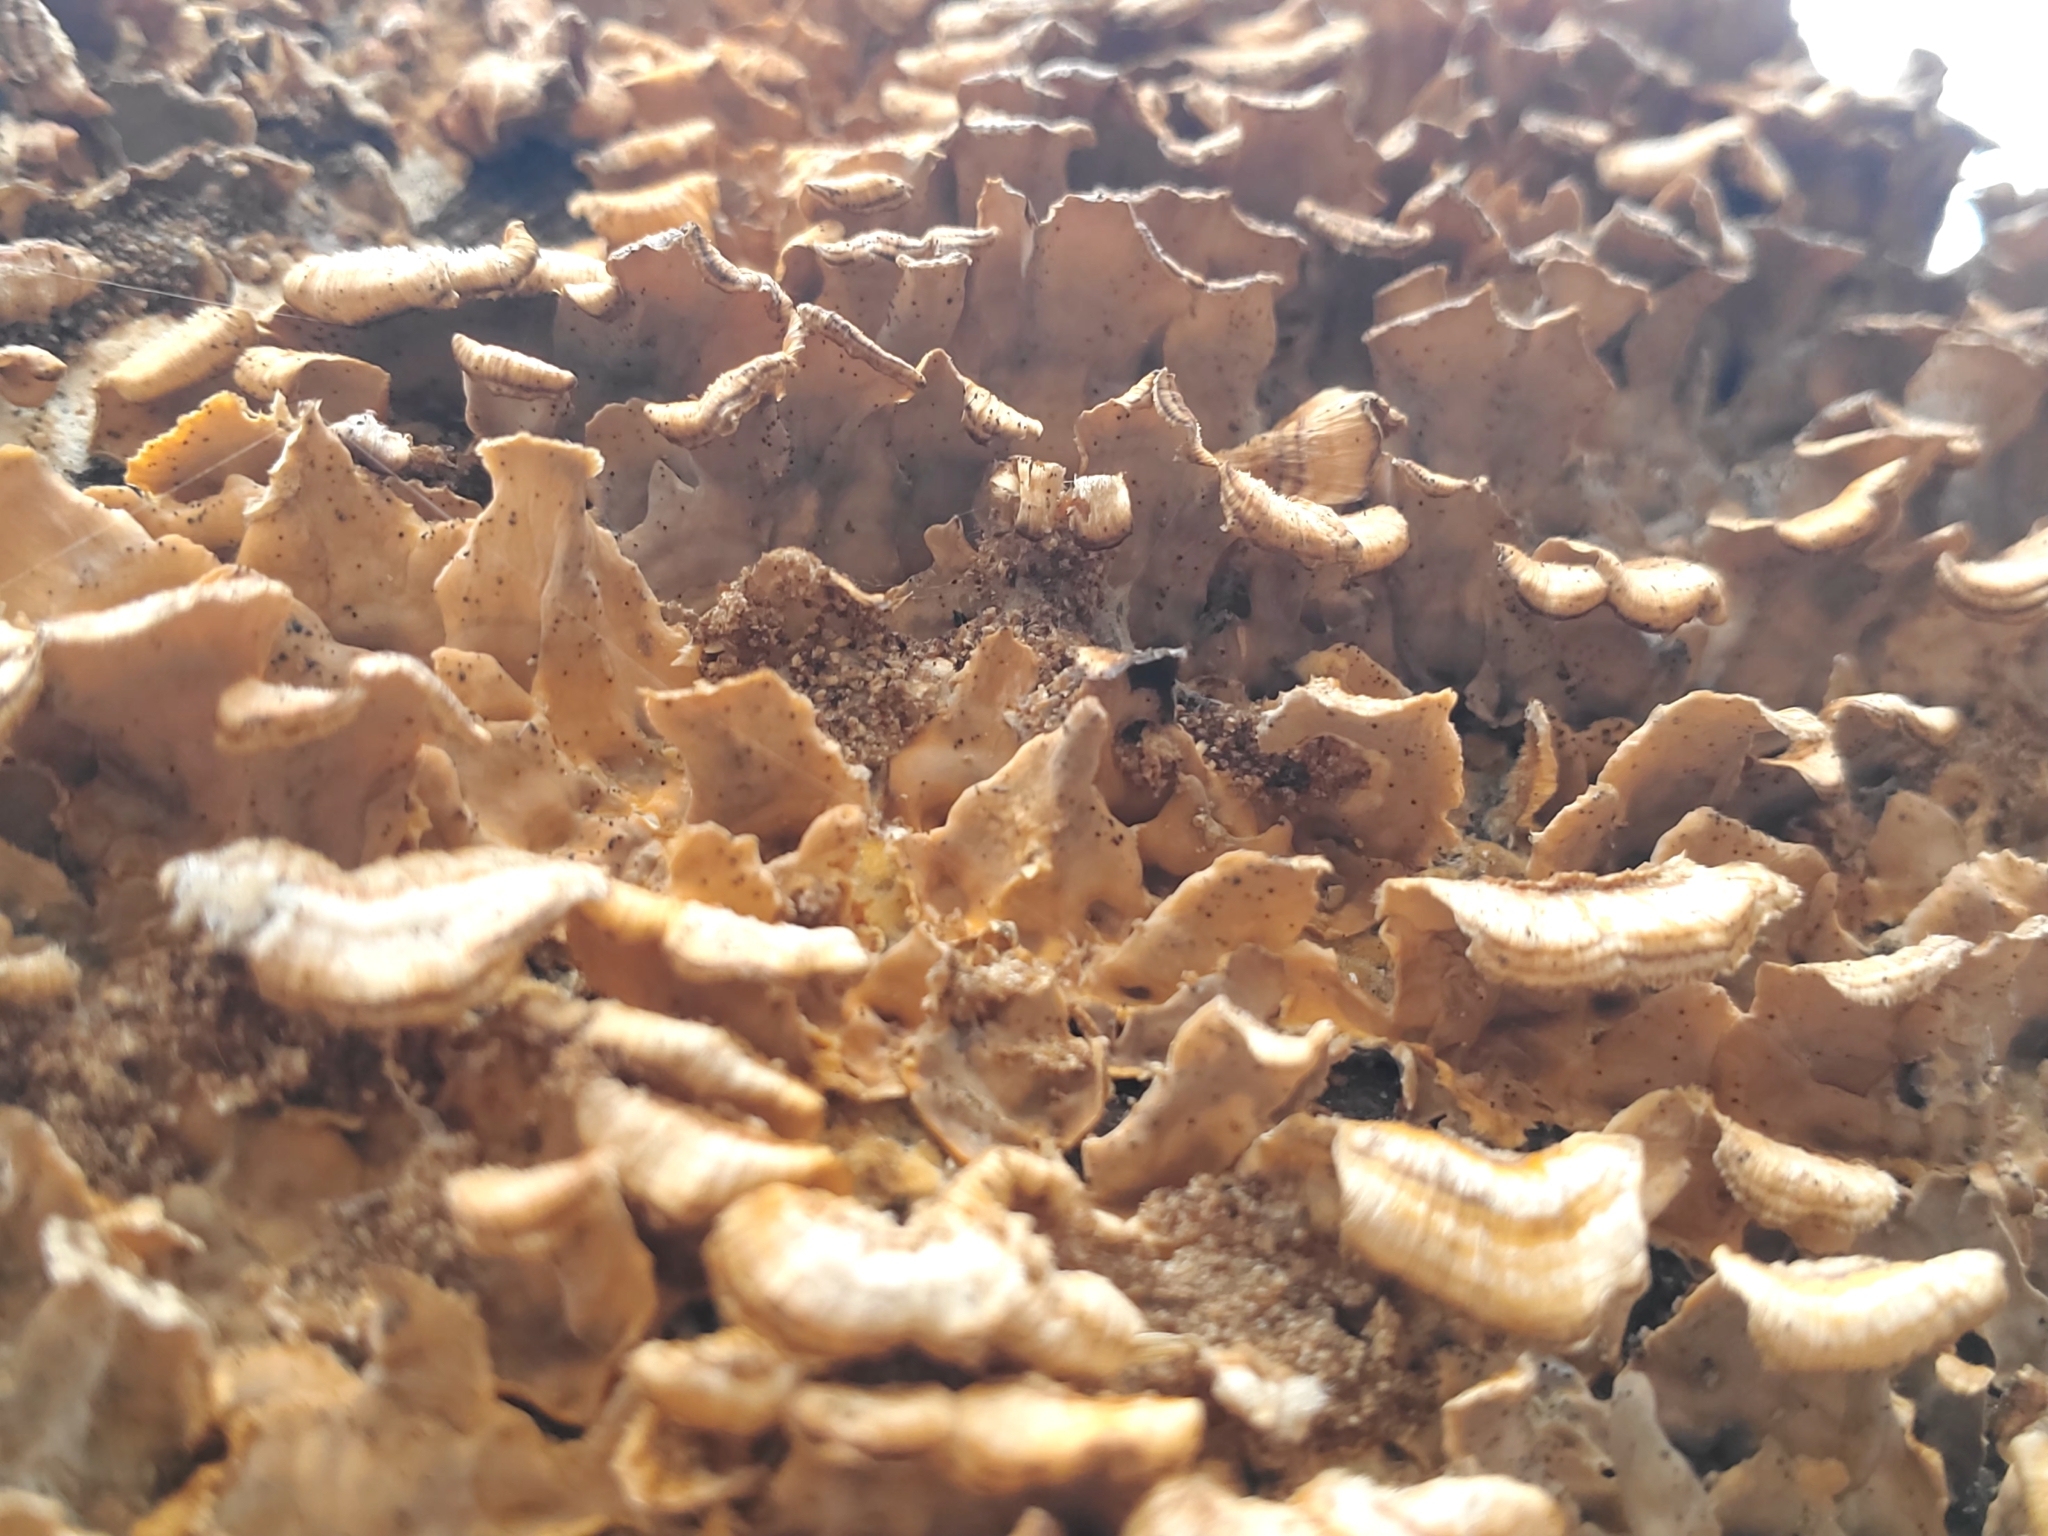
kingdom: Fungi
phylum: Basidiomycota
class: Agaricomycetes
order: Russulales
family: Stereaceae
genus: Stereum
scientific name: Stereum complicatum
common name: Crowded parchment
